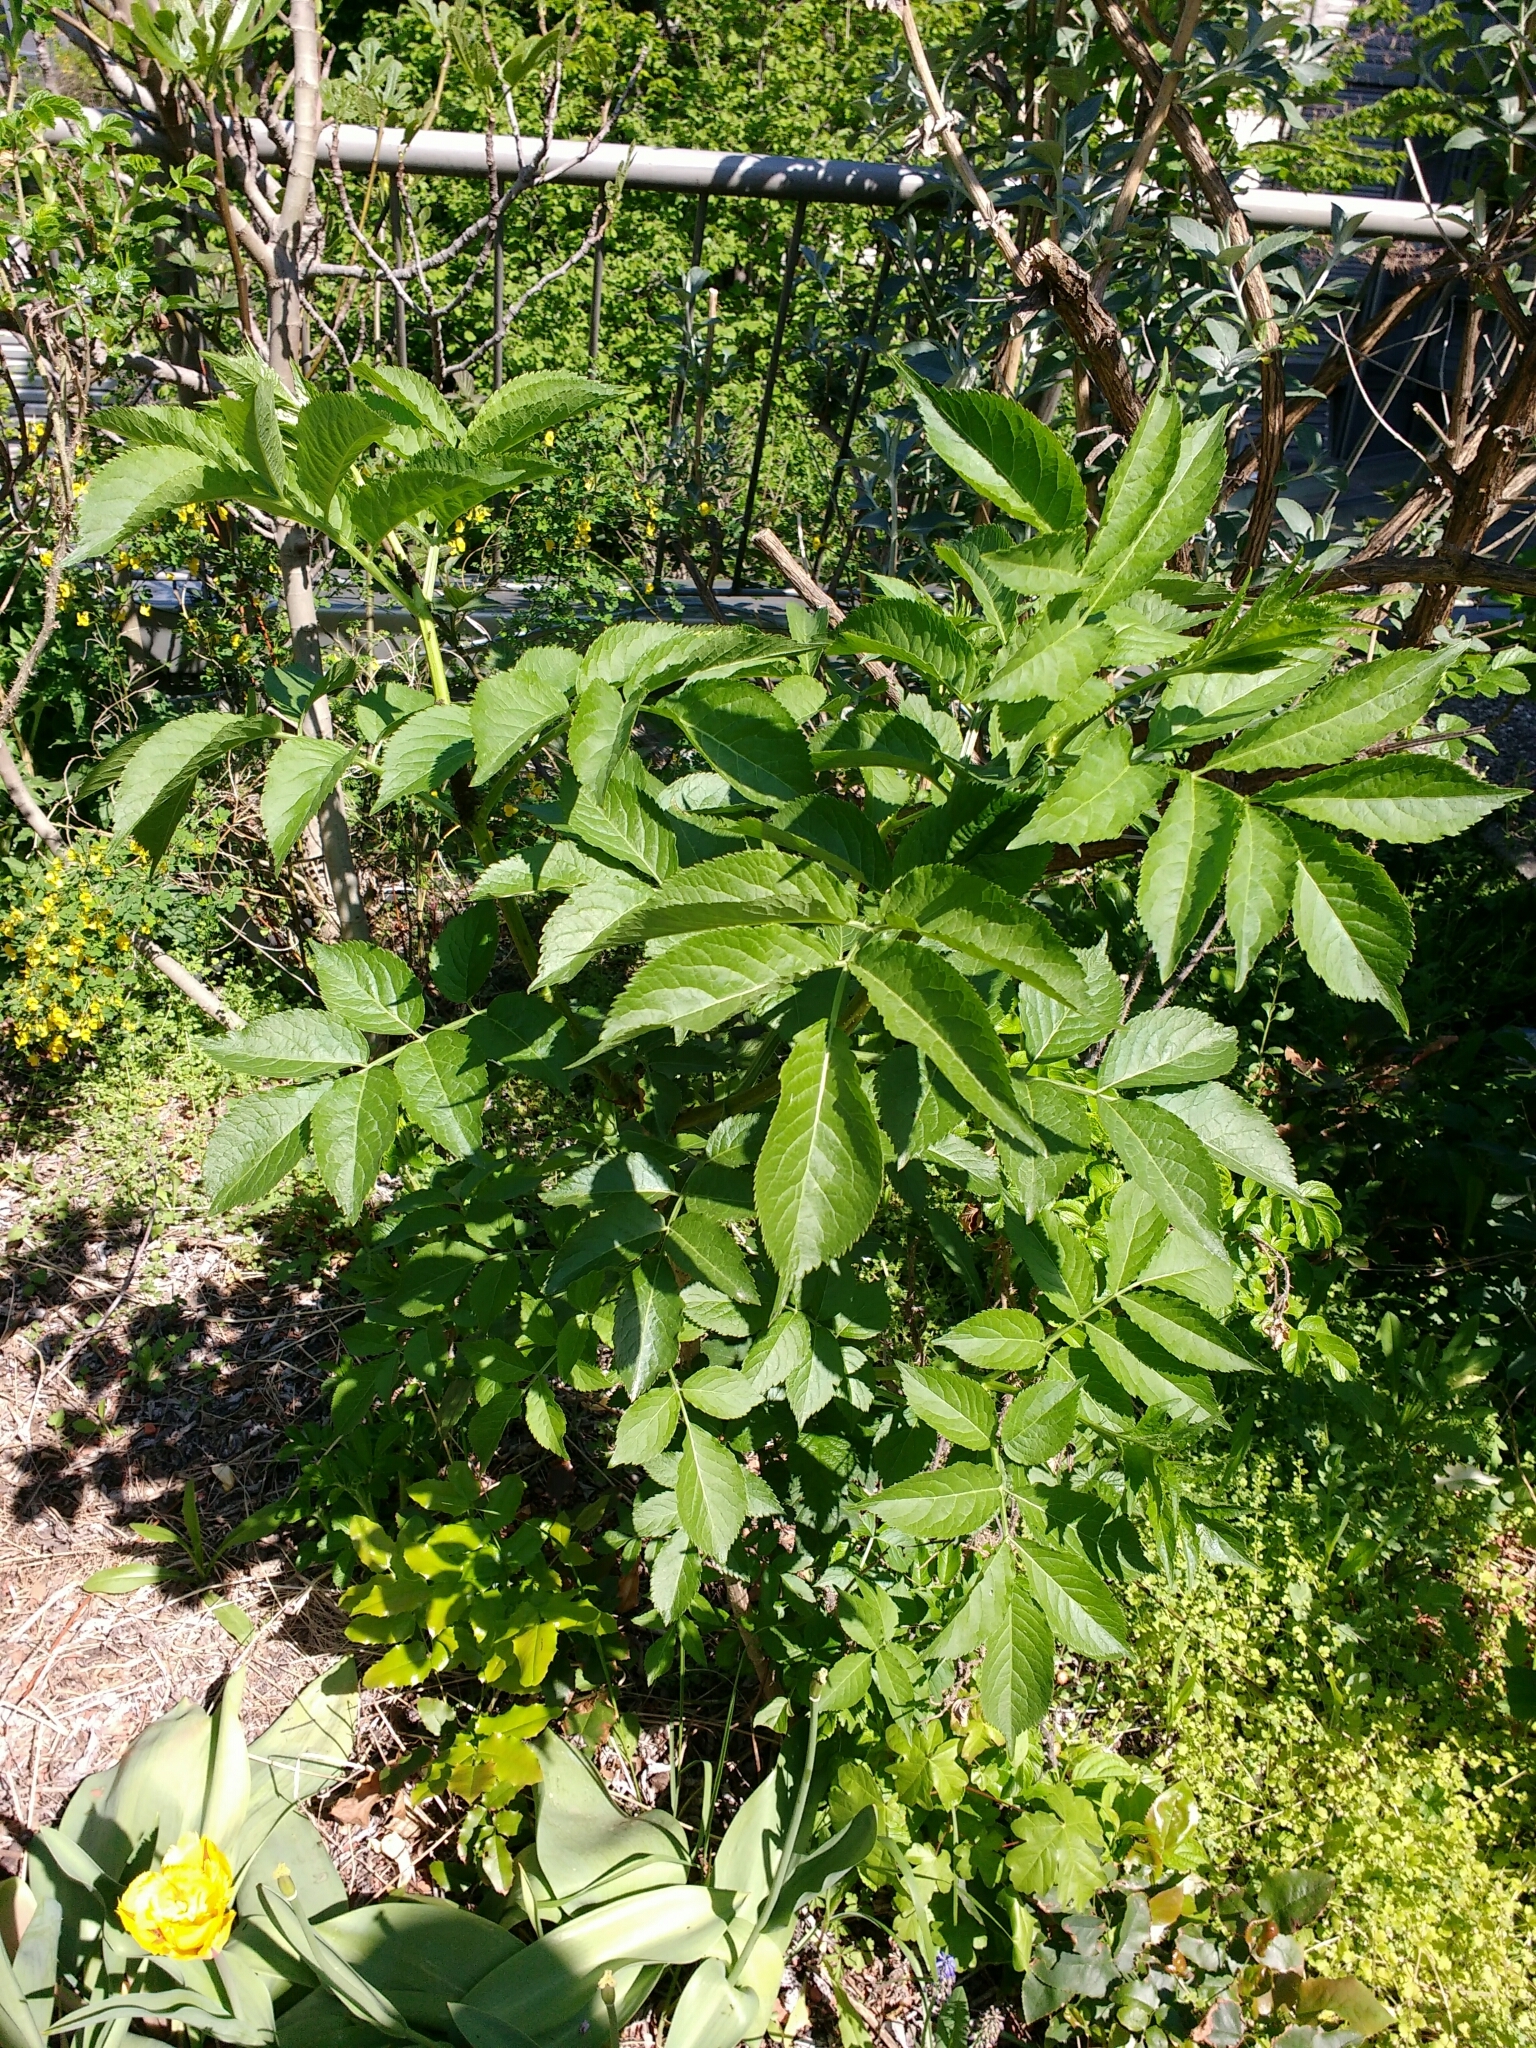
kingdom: Plantae
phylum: Tracheophyta
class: Magnoliopsida
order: Dipsacales
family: Viburnaceae
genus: Sambucus
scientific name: Sambucus nigra
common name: Elder
